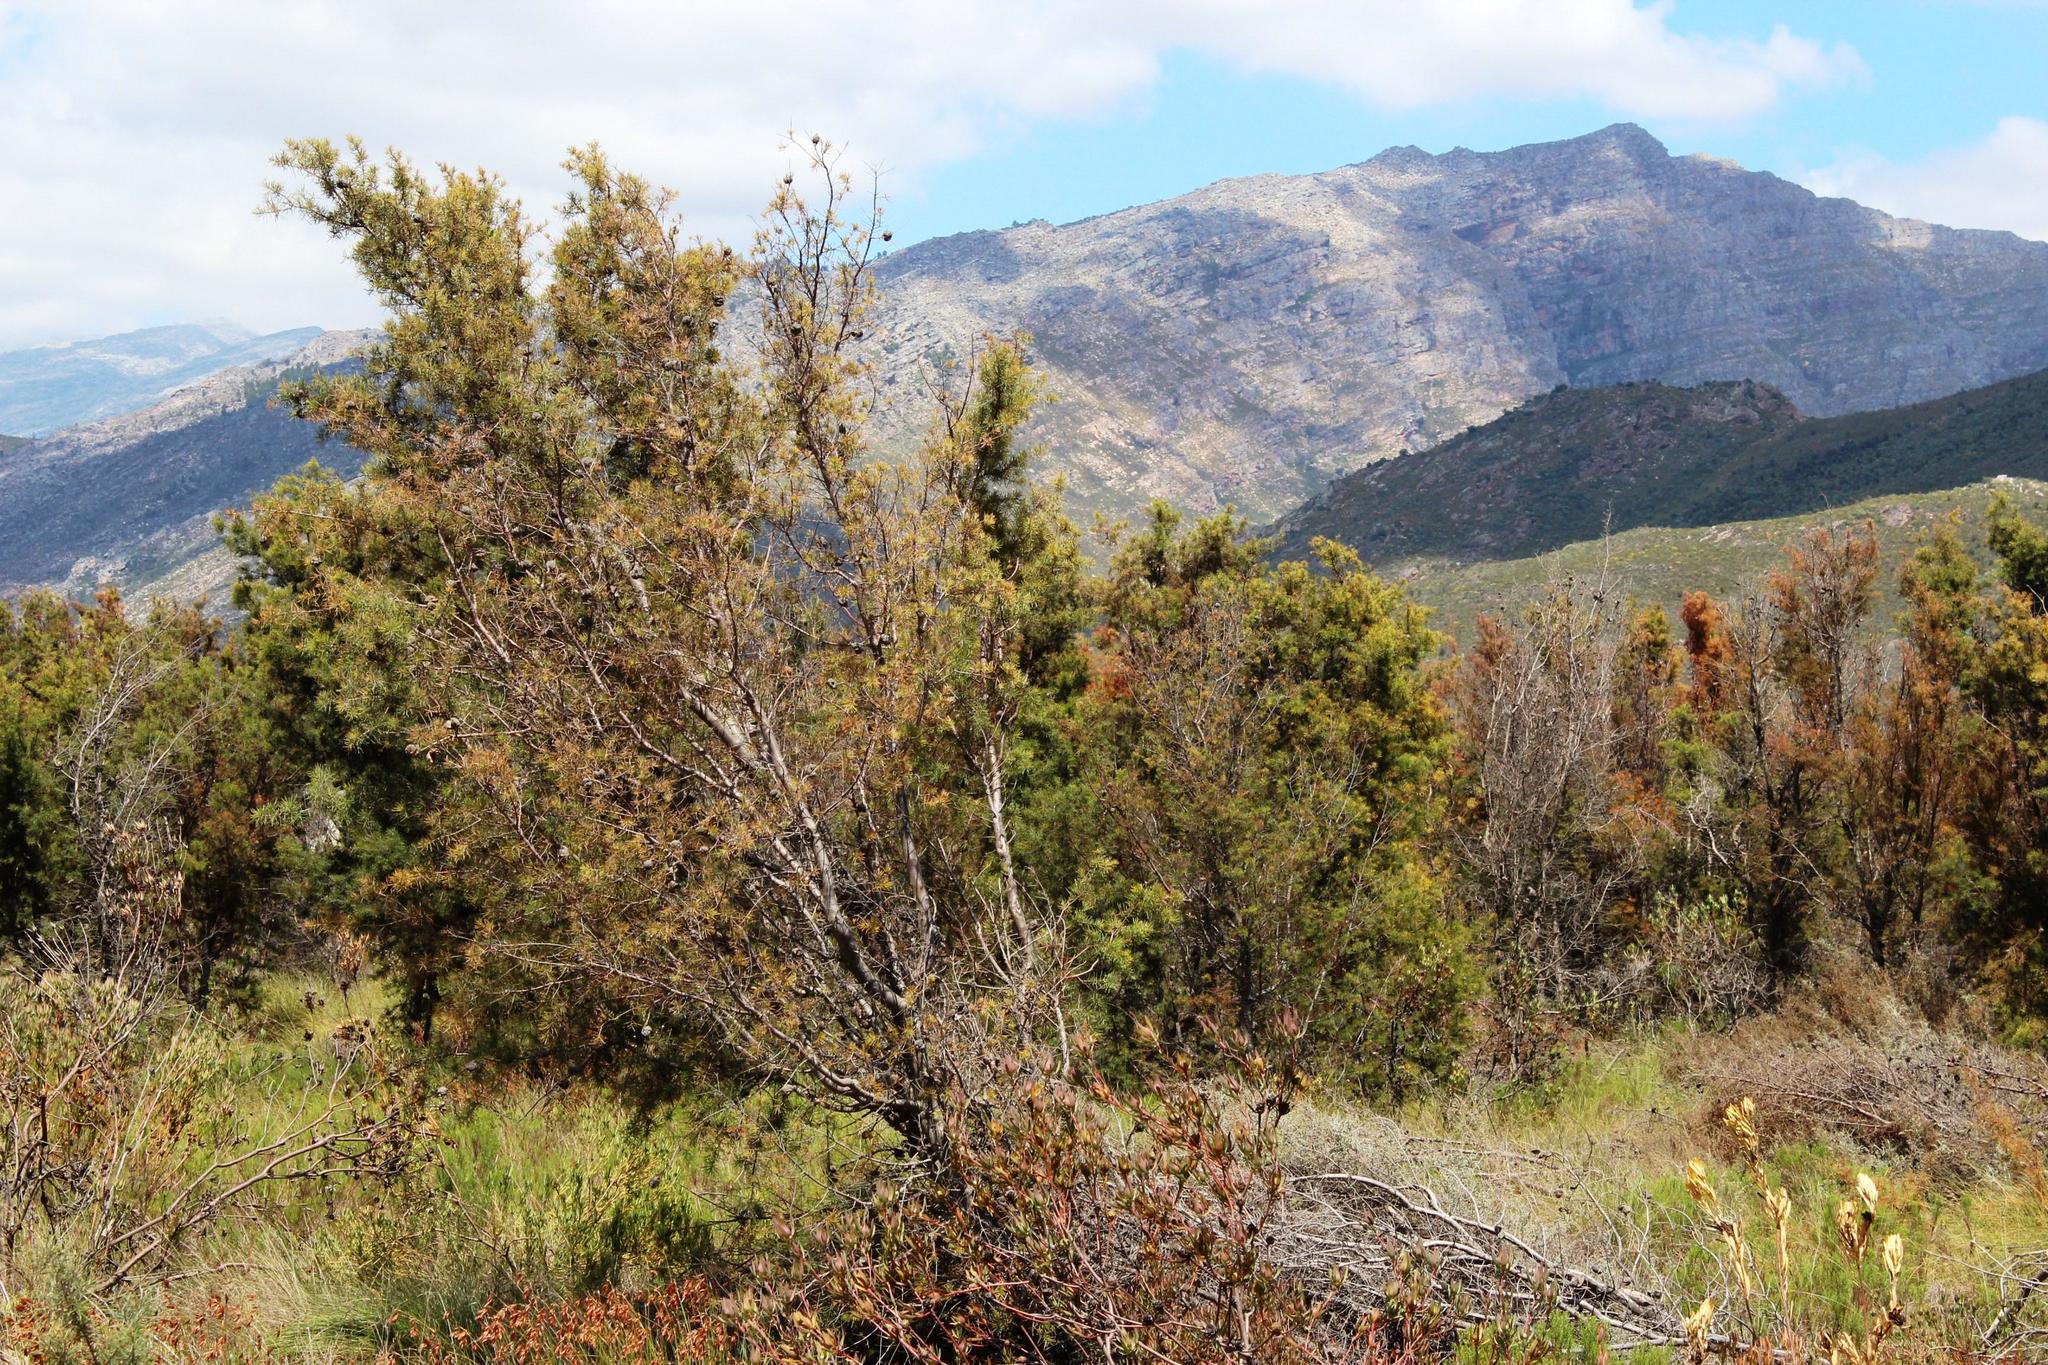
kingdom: Plantae
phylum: Tracheophyta
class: Magnoliopsida
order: Proteales
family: Proteaceae
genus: Hakea
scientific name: Hakea sericea
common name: Needle bush
